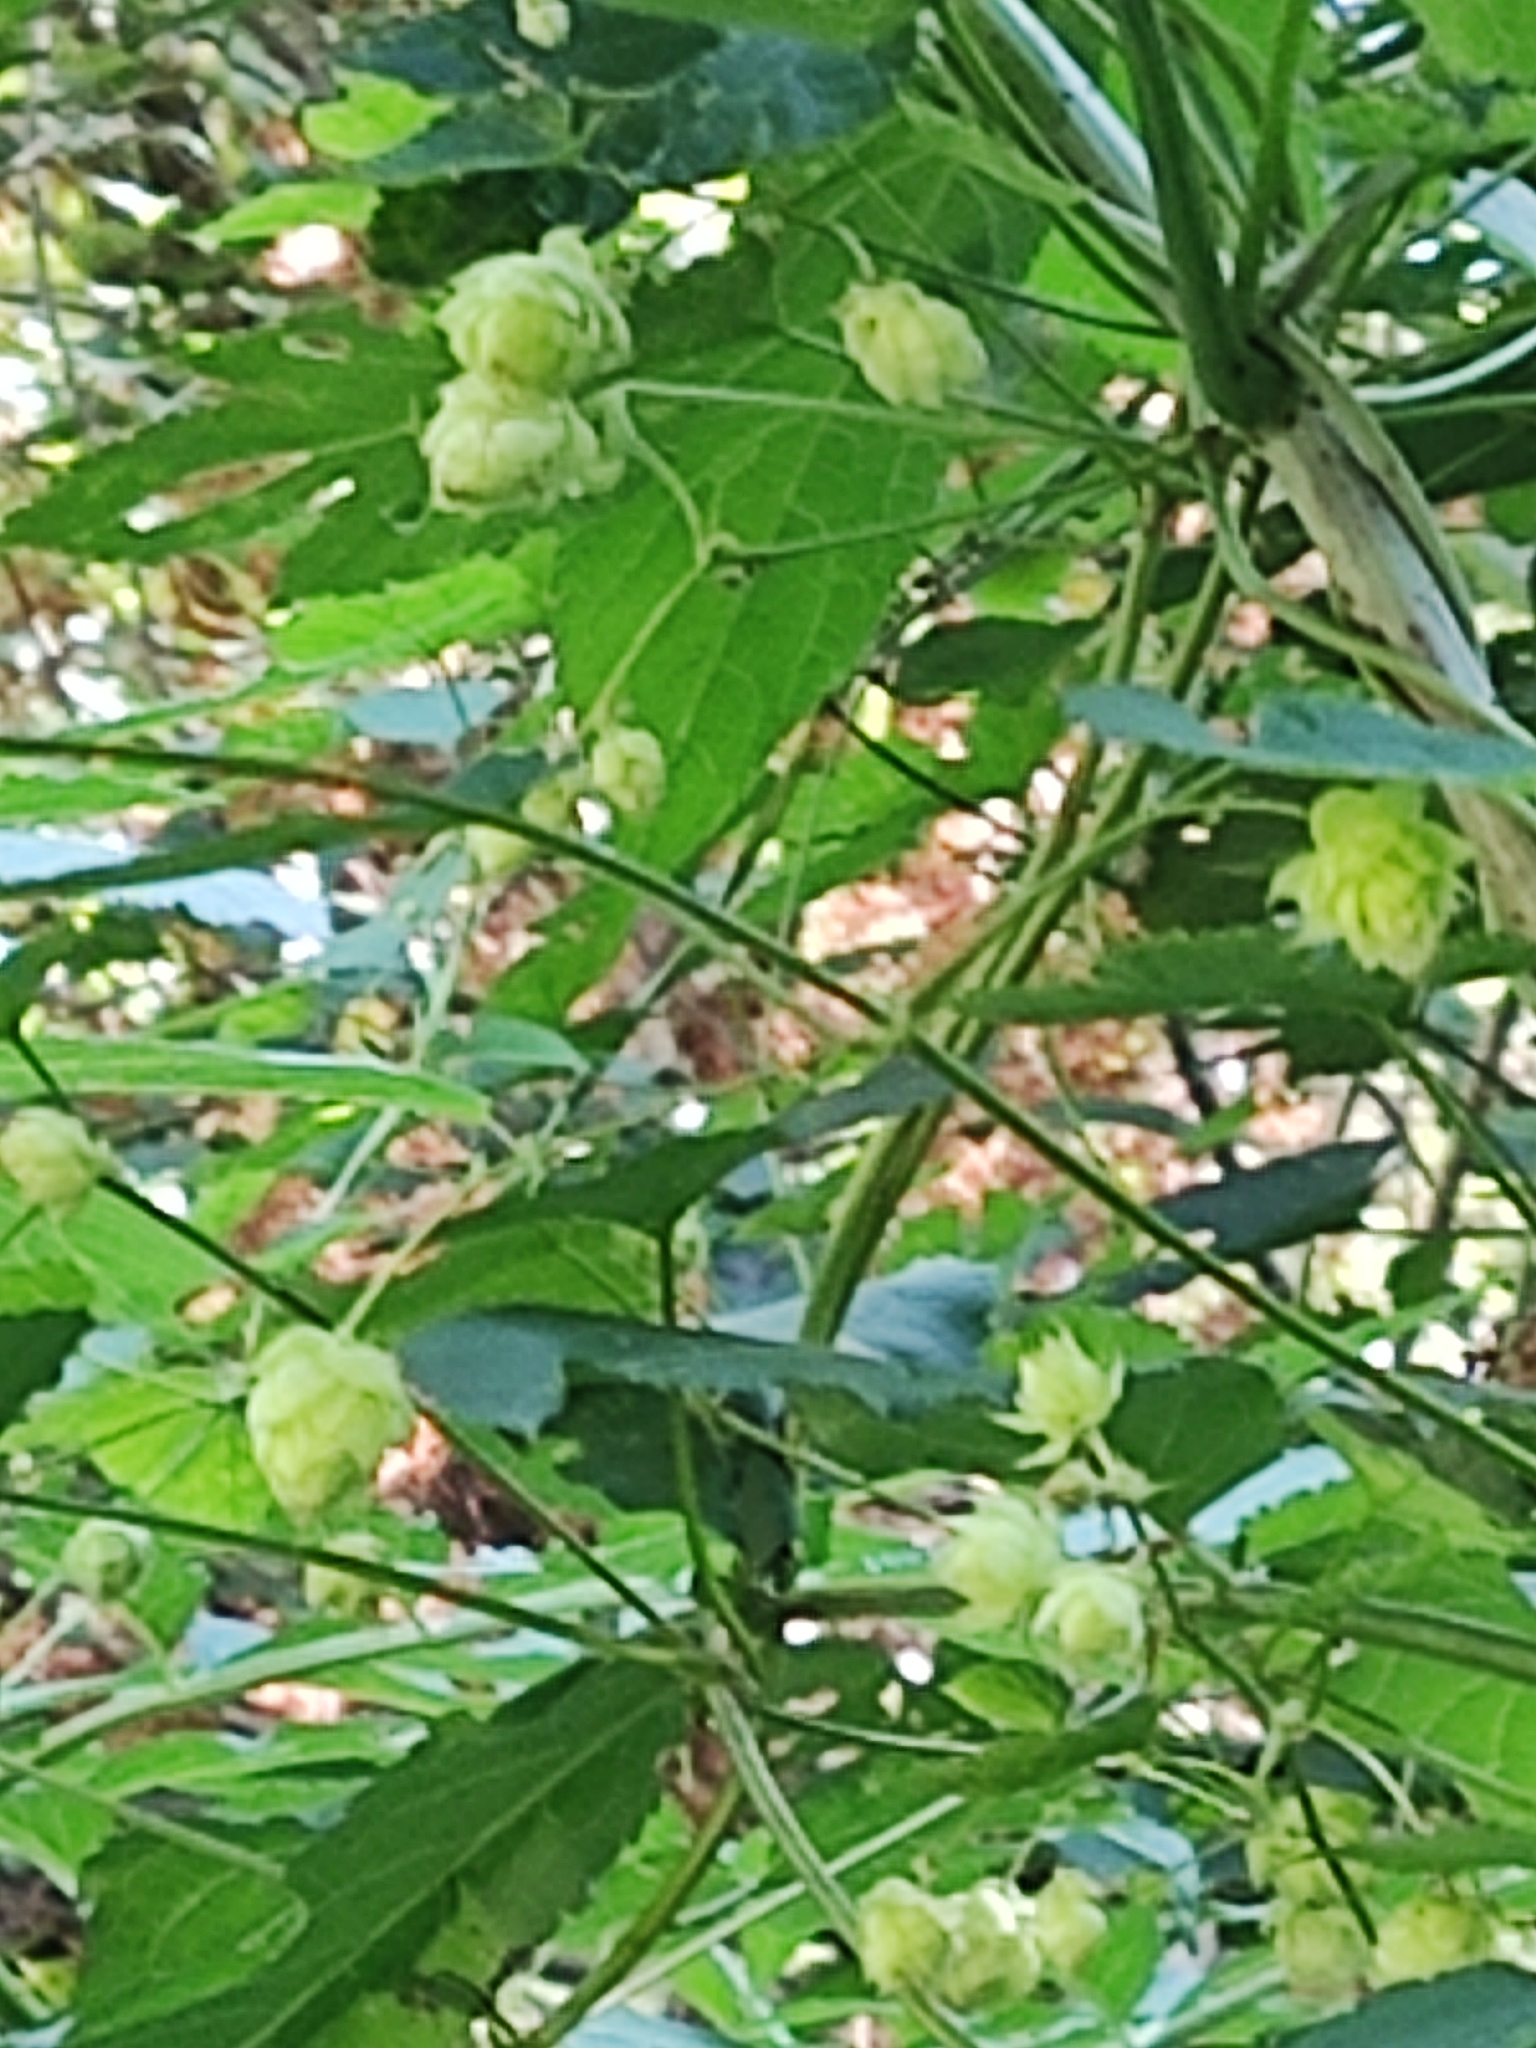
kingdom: Plantae
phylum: Tracheophyta
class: Magnoliopsida
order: Rosales
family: Cannabaceae
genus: Humulus
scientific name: Humulus lupulus
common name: Hop
